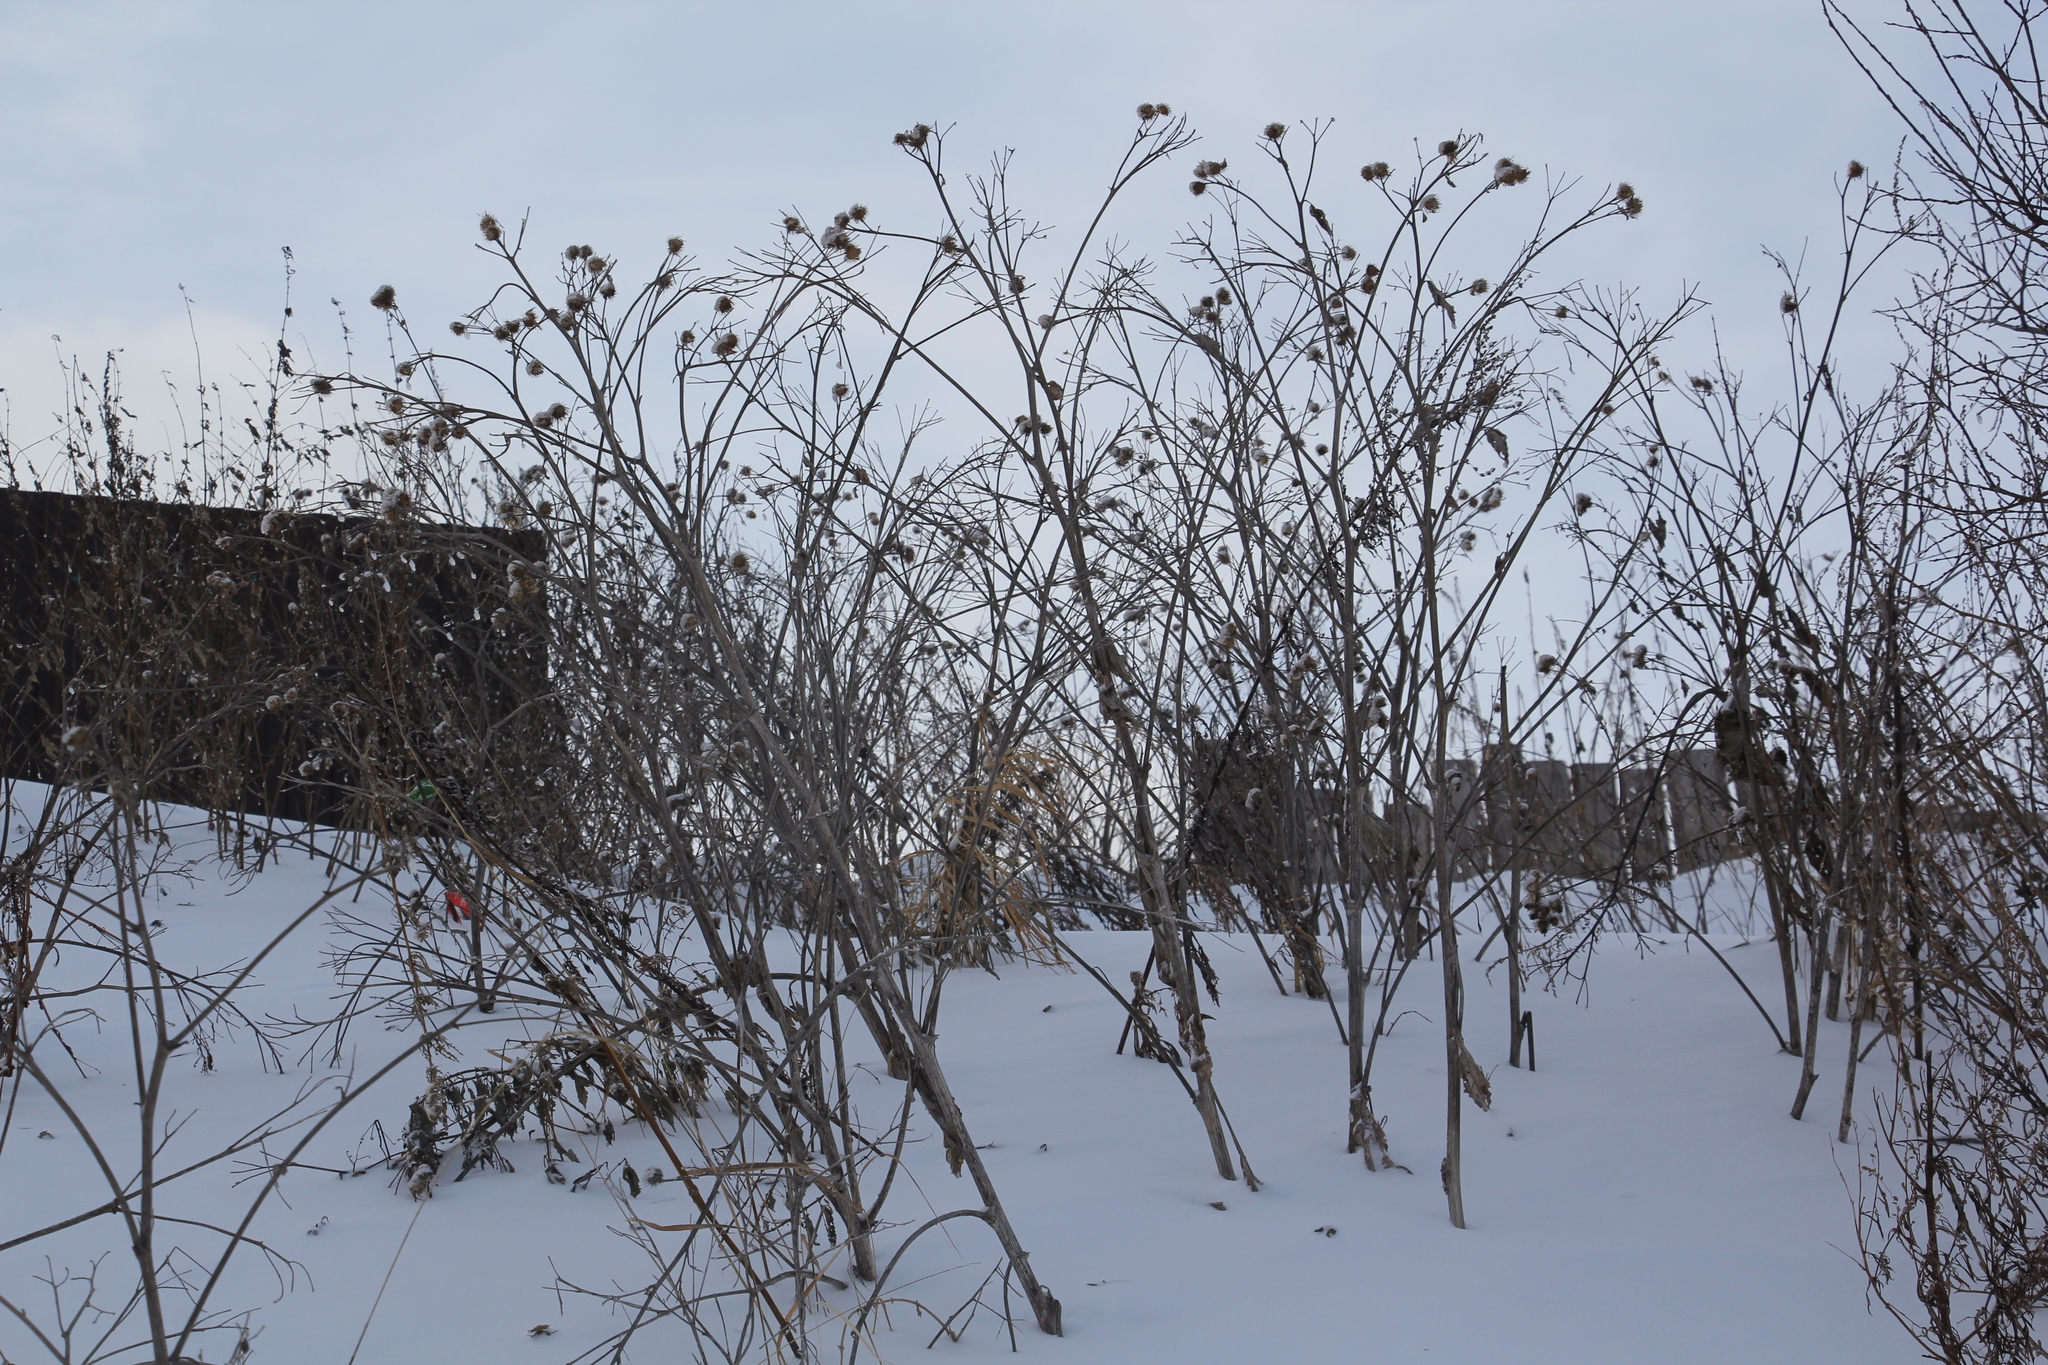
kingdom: Plantae
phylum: Tracheophyta
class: Magnoliopsida
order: Asterales
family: Asteraceae
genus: Arctium
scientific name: Arctium tomentosum
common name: Woolly burdock
